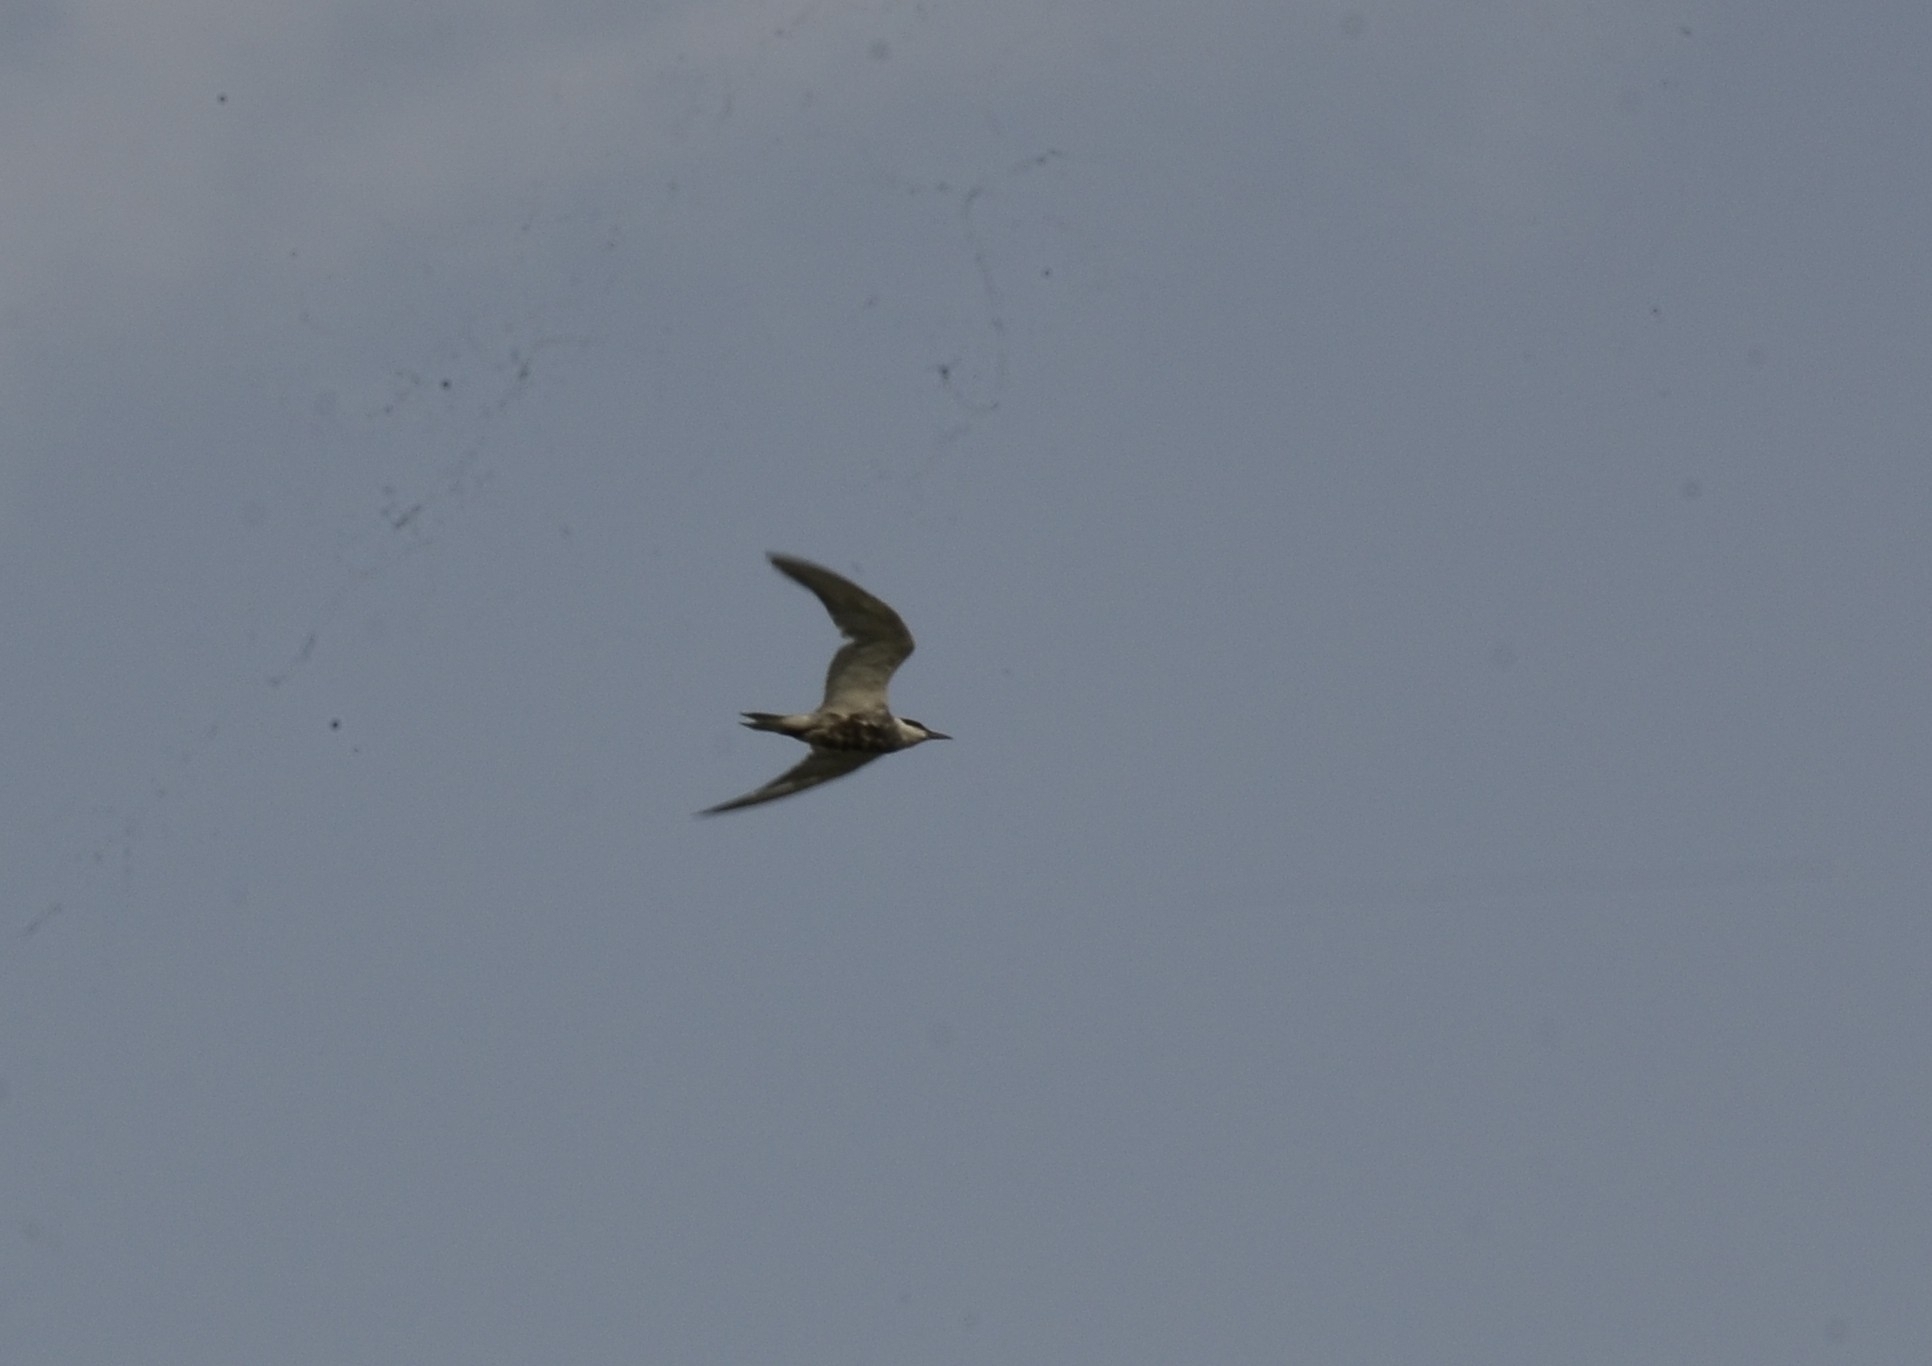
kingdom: Animalia
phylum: Chordata
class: Aves
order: Charadriiformes
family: Laridae
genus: Chlidonias
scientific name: Chlidonias hybrida
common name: Whiskered tern
